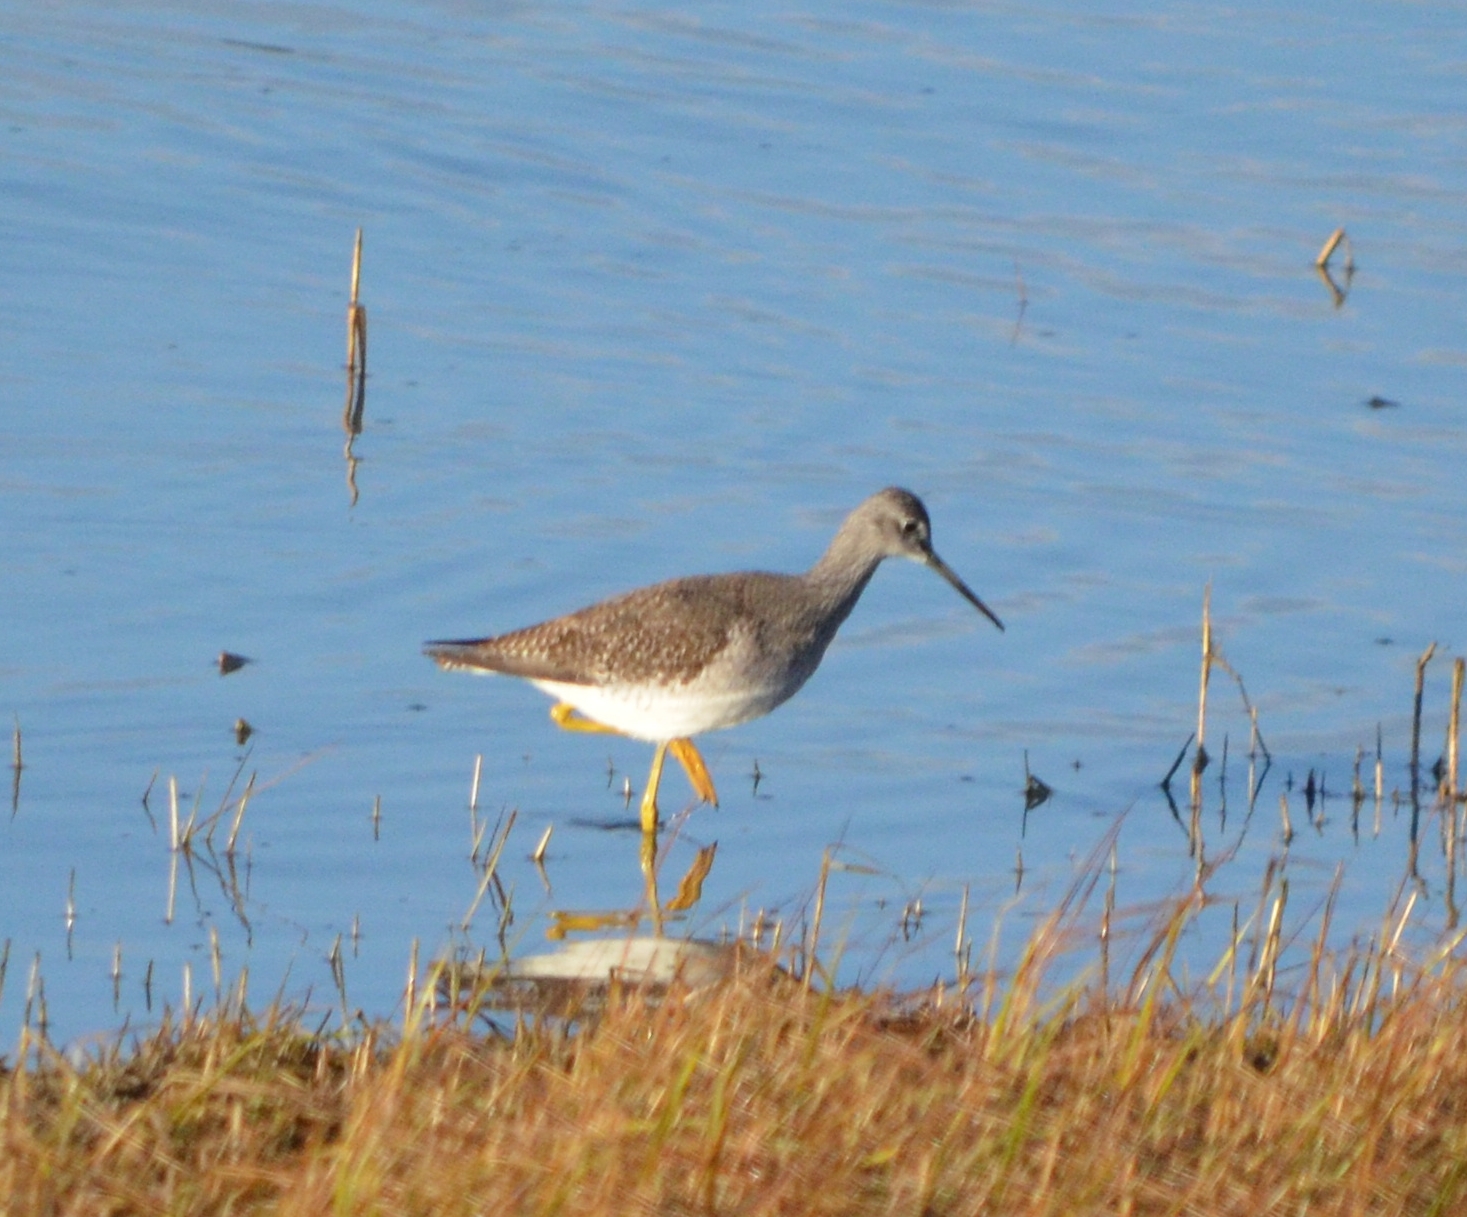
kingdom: Animalia
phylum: Chordata
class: Aves
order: Charadriiformes
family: Scolopacidae
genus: Tringa
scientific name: Tringa melanoleuca
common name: Greater yellowlegs
